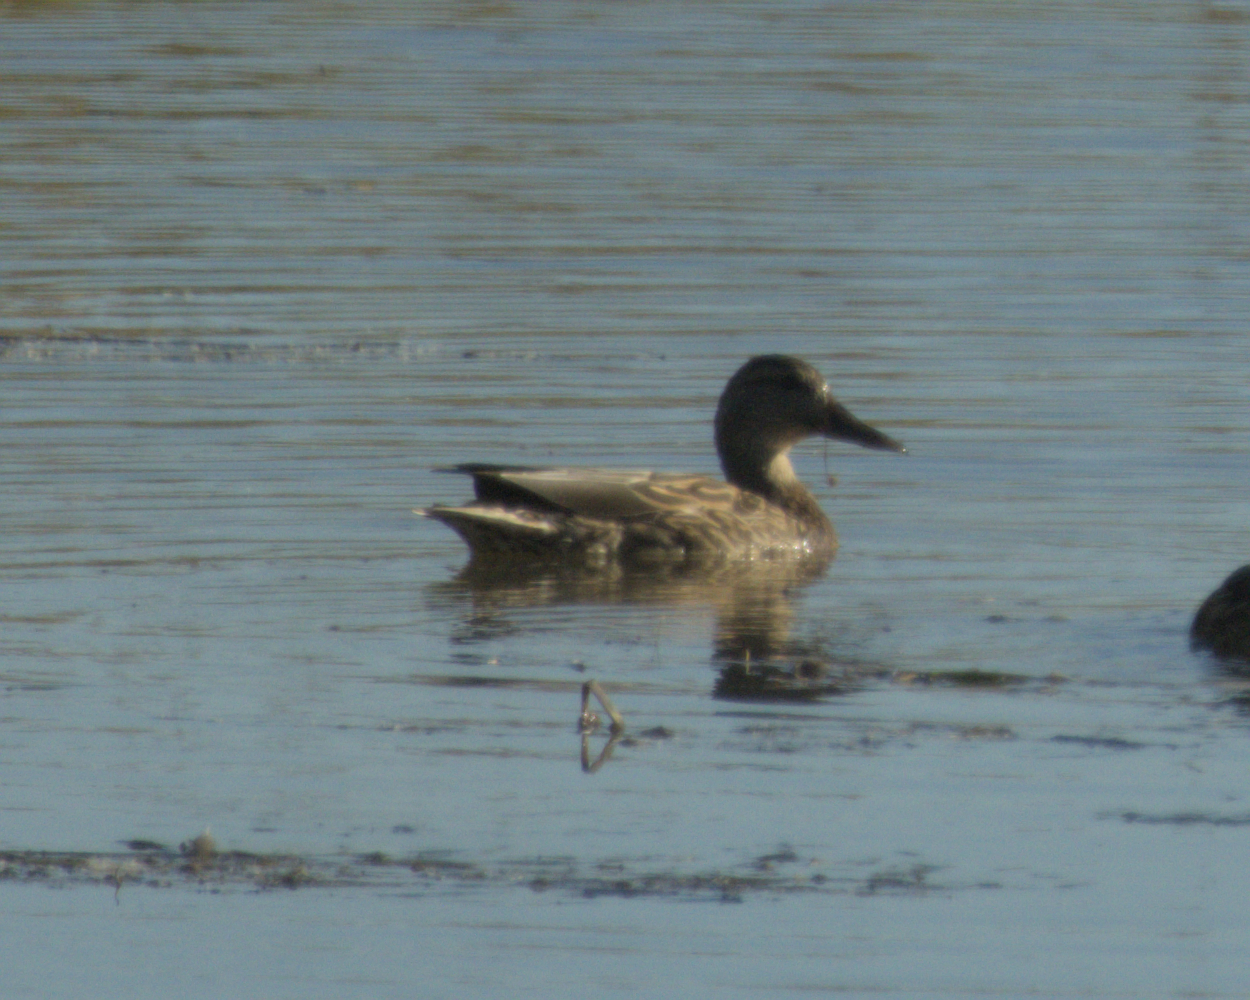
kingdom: Animalia
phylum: Chordata
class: Aves
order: Anseriformes
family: Anatidae
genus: Anas
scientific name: Anas platyrhynchos
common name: Mallard
